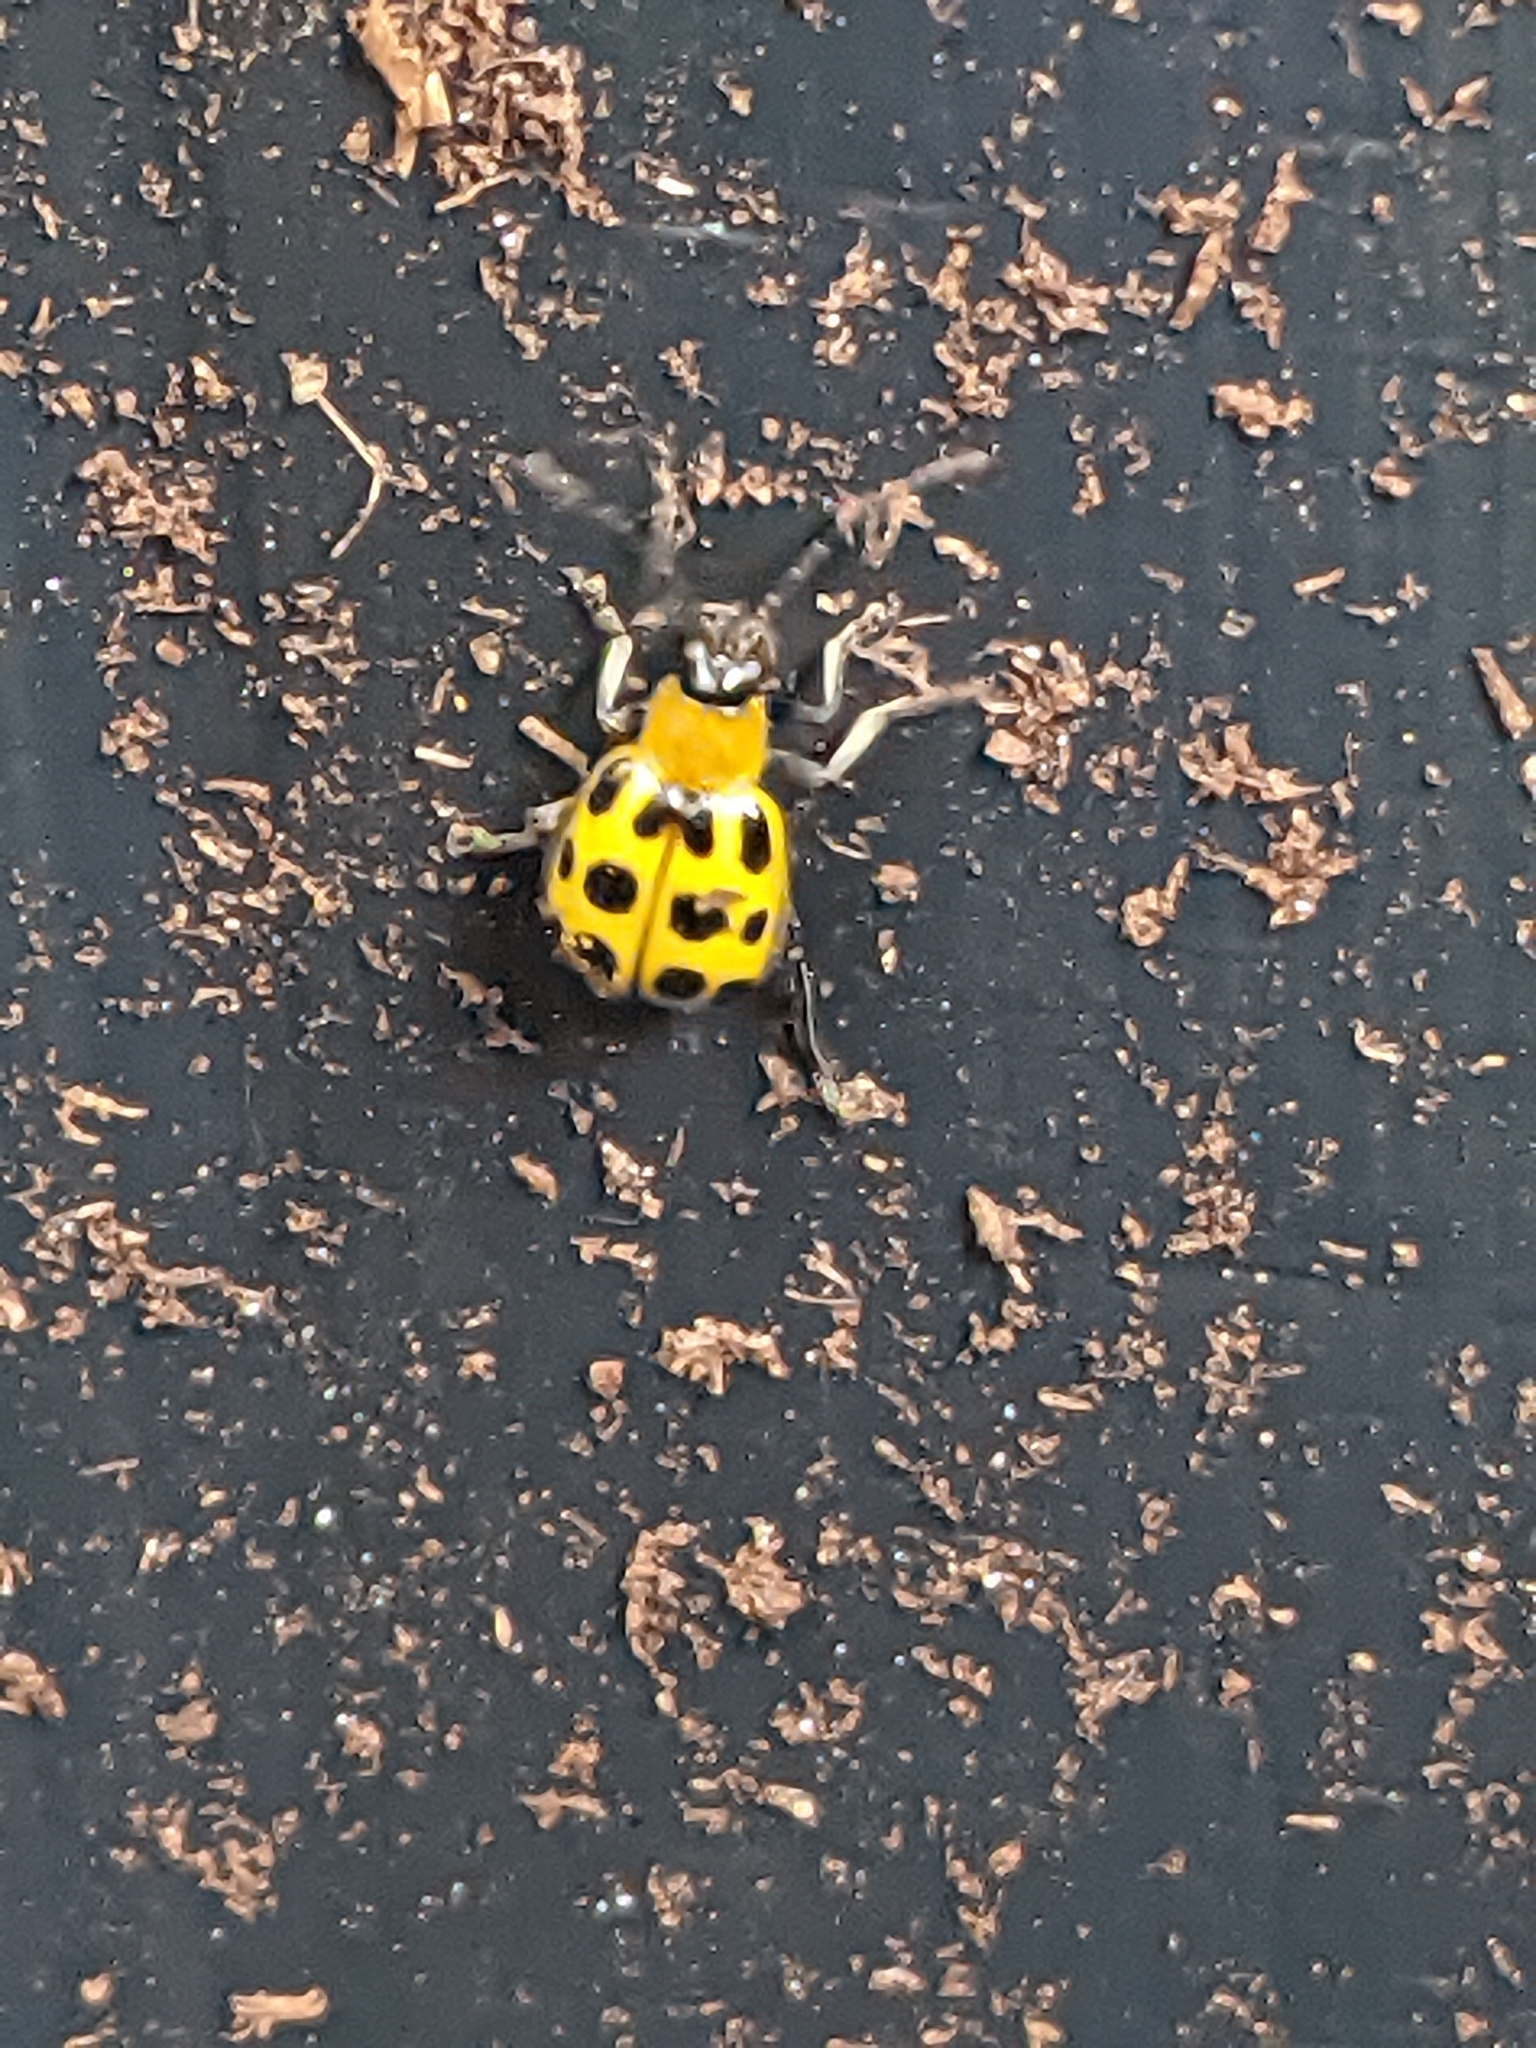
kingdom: Animalia
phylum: Arthropoda
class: Insecta
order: Coleoptera
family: Chrysomelidae
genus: Diabrotica
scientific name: Diabrotica undecimpunctata
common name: Spotted cucumber beetle
